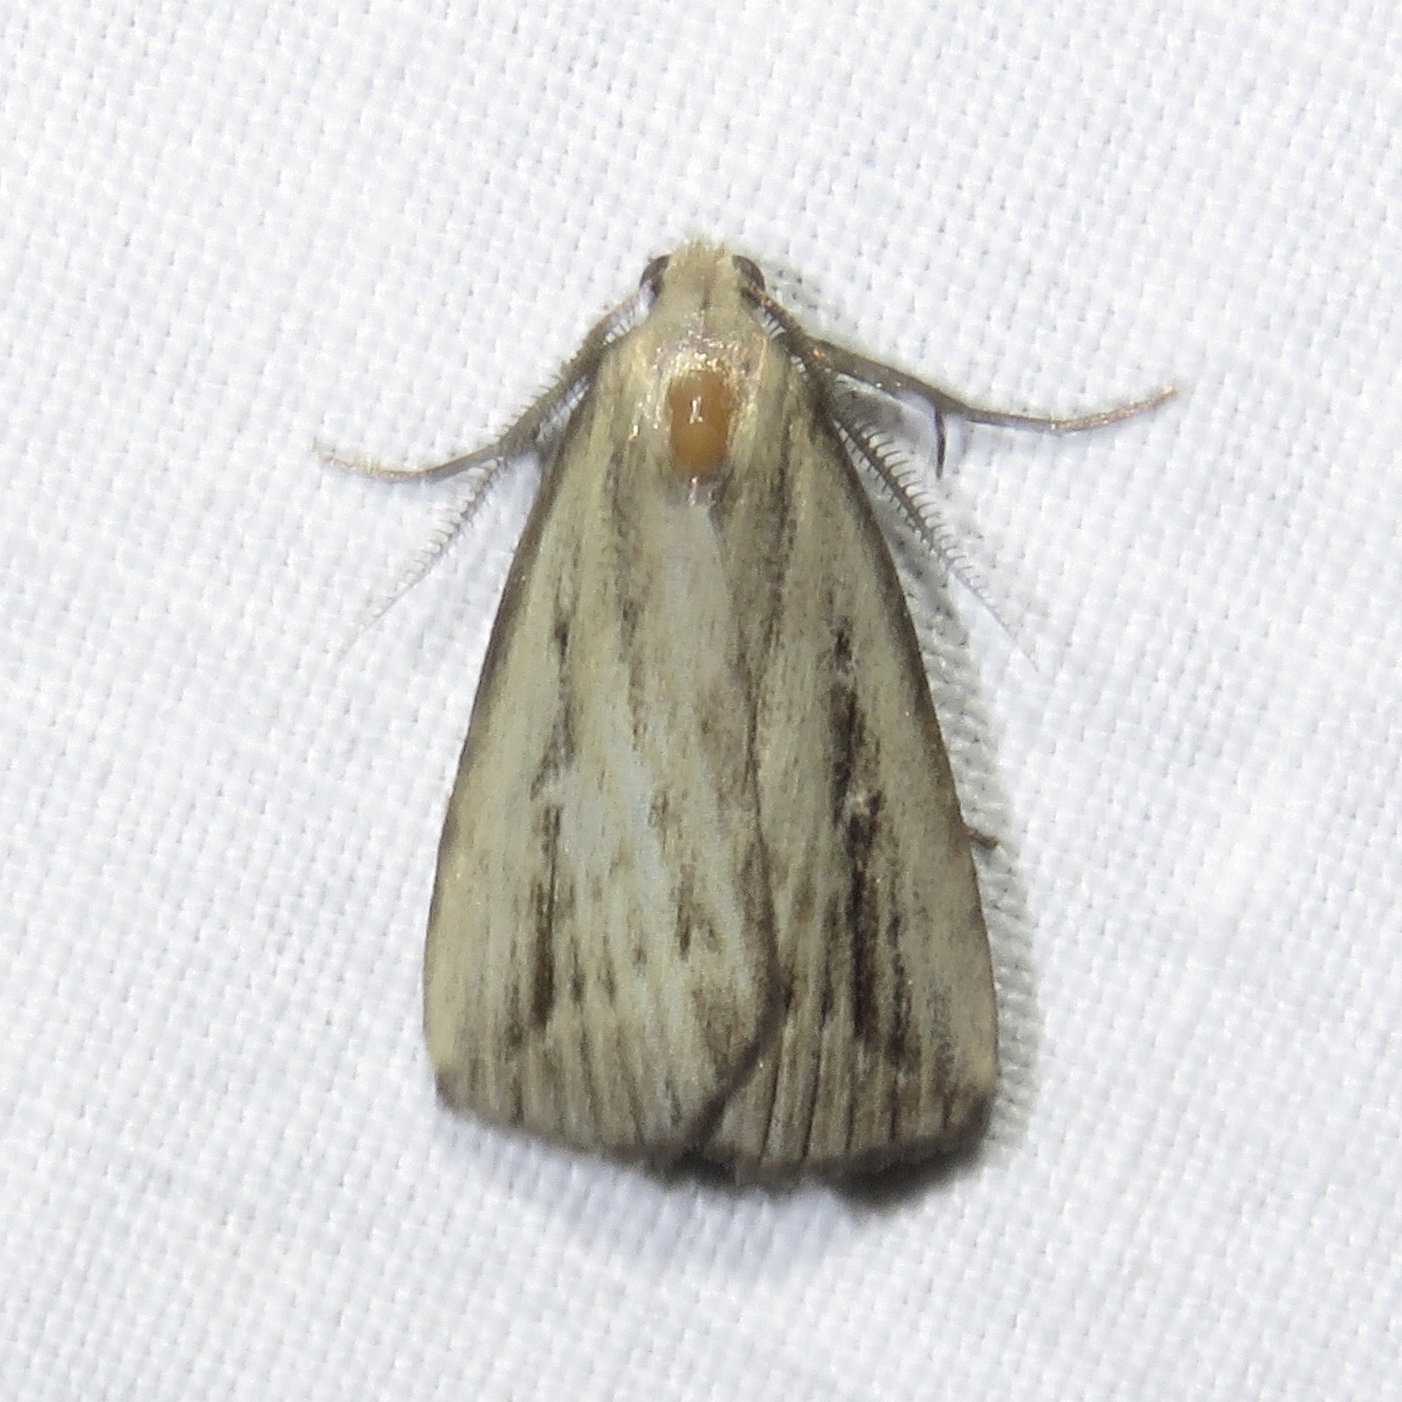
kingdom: Animalia
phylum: Arthropoda
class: Insecta
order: Lepidoptera
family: Erebidae
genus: Macrochilo
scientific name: Macrochilo orciferalis
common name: Bronzy owlet
